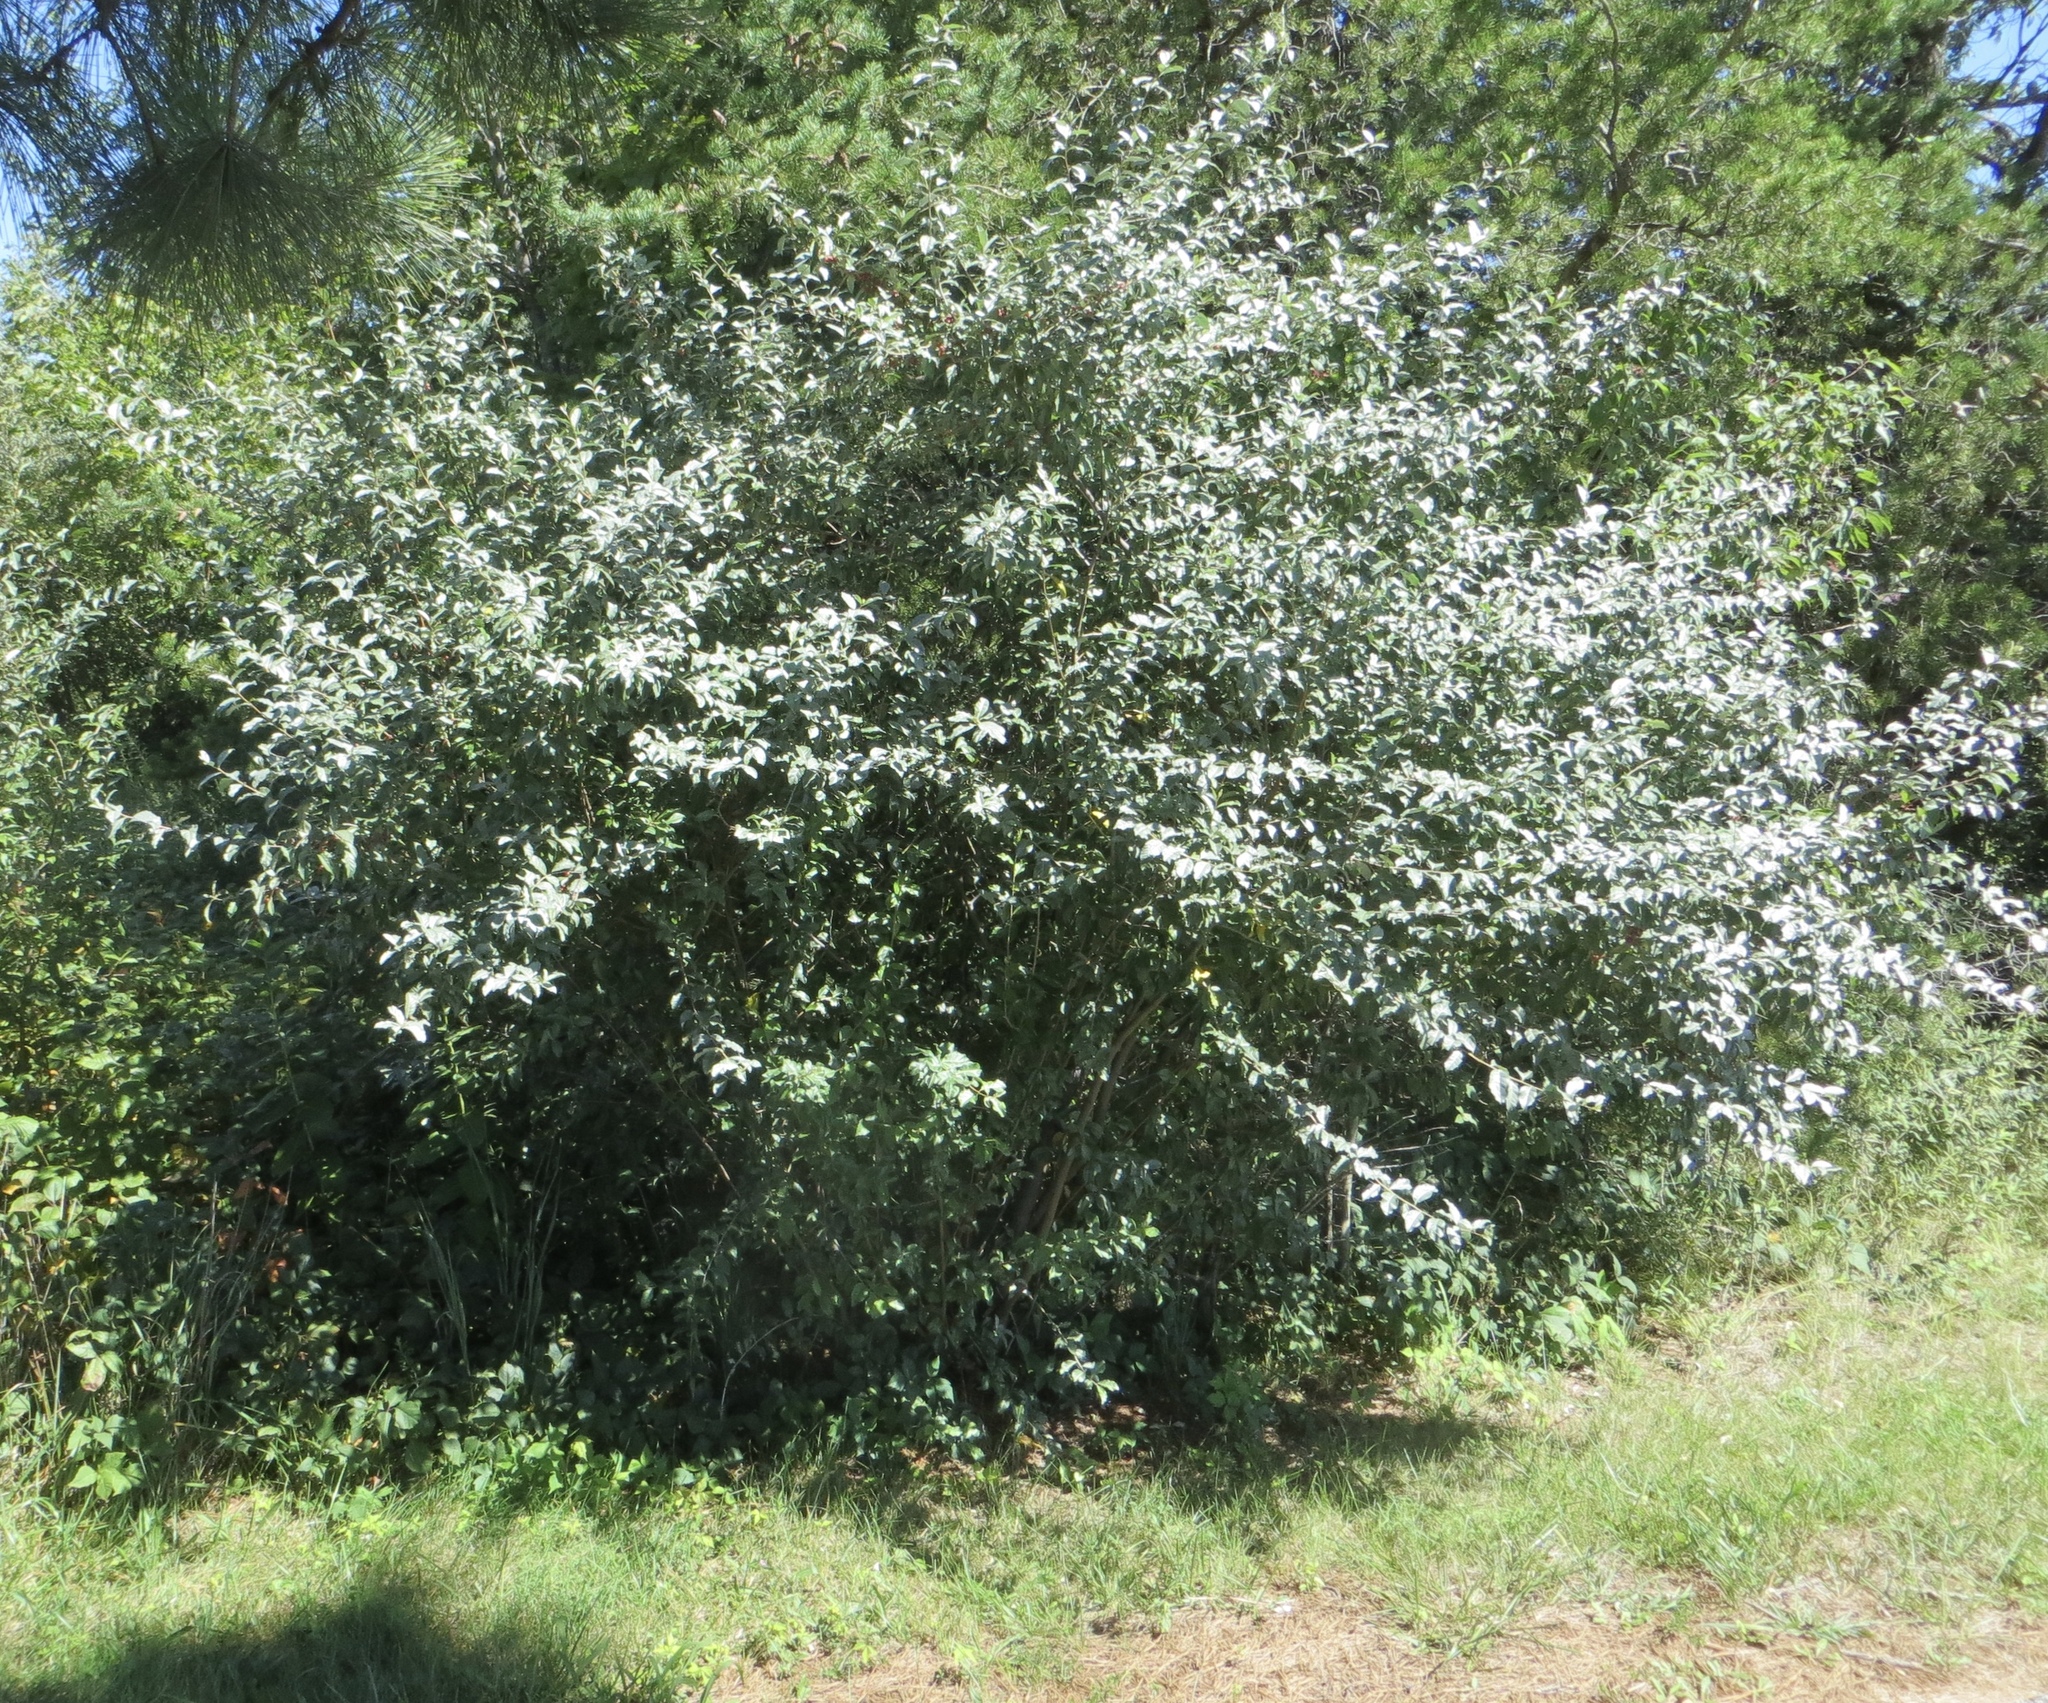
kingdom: Plantae
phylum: Tracheophyta
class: Magnoliopsida
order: Rosales
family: Elaeagnaceae
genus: Elaeagnus
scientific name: Elaeagnus umbellata
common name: Autumn olive
